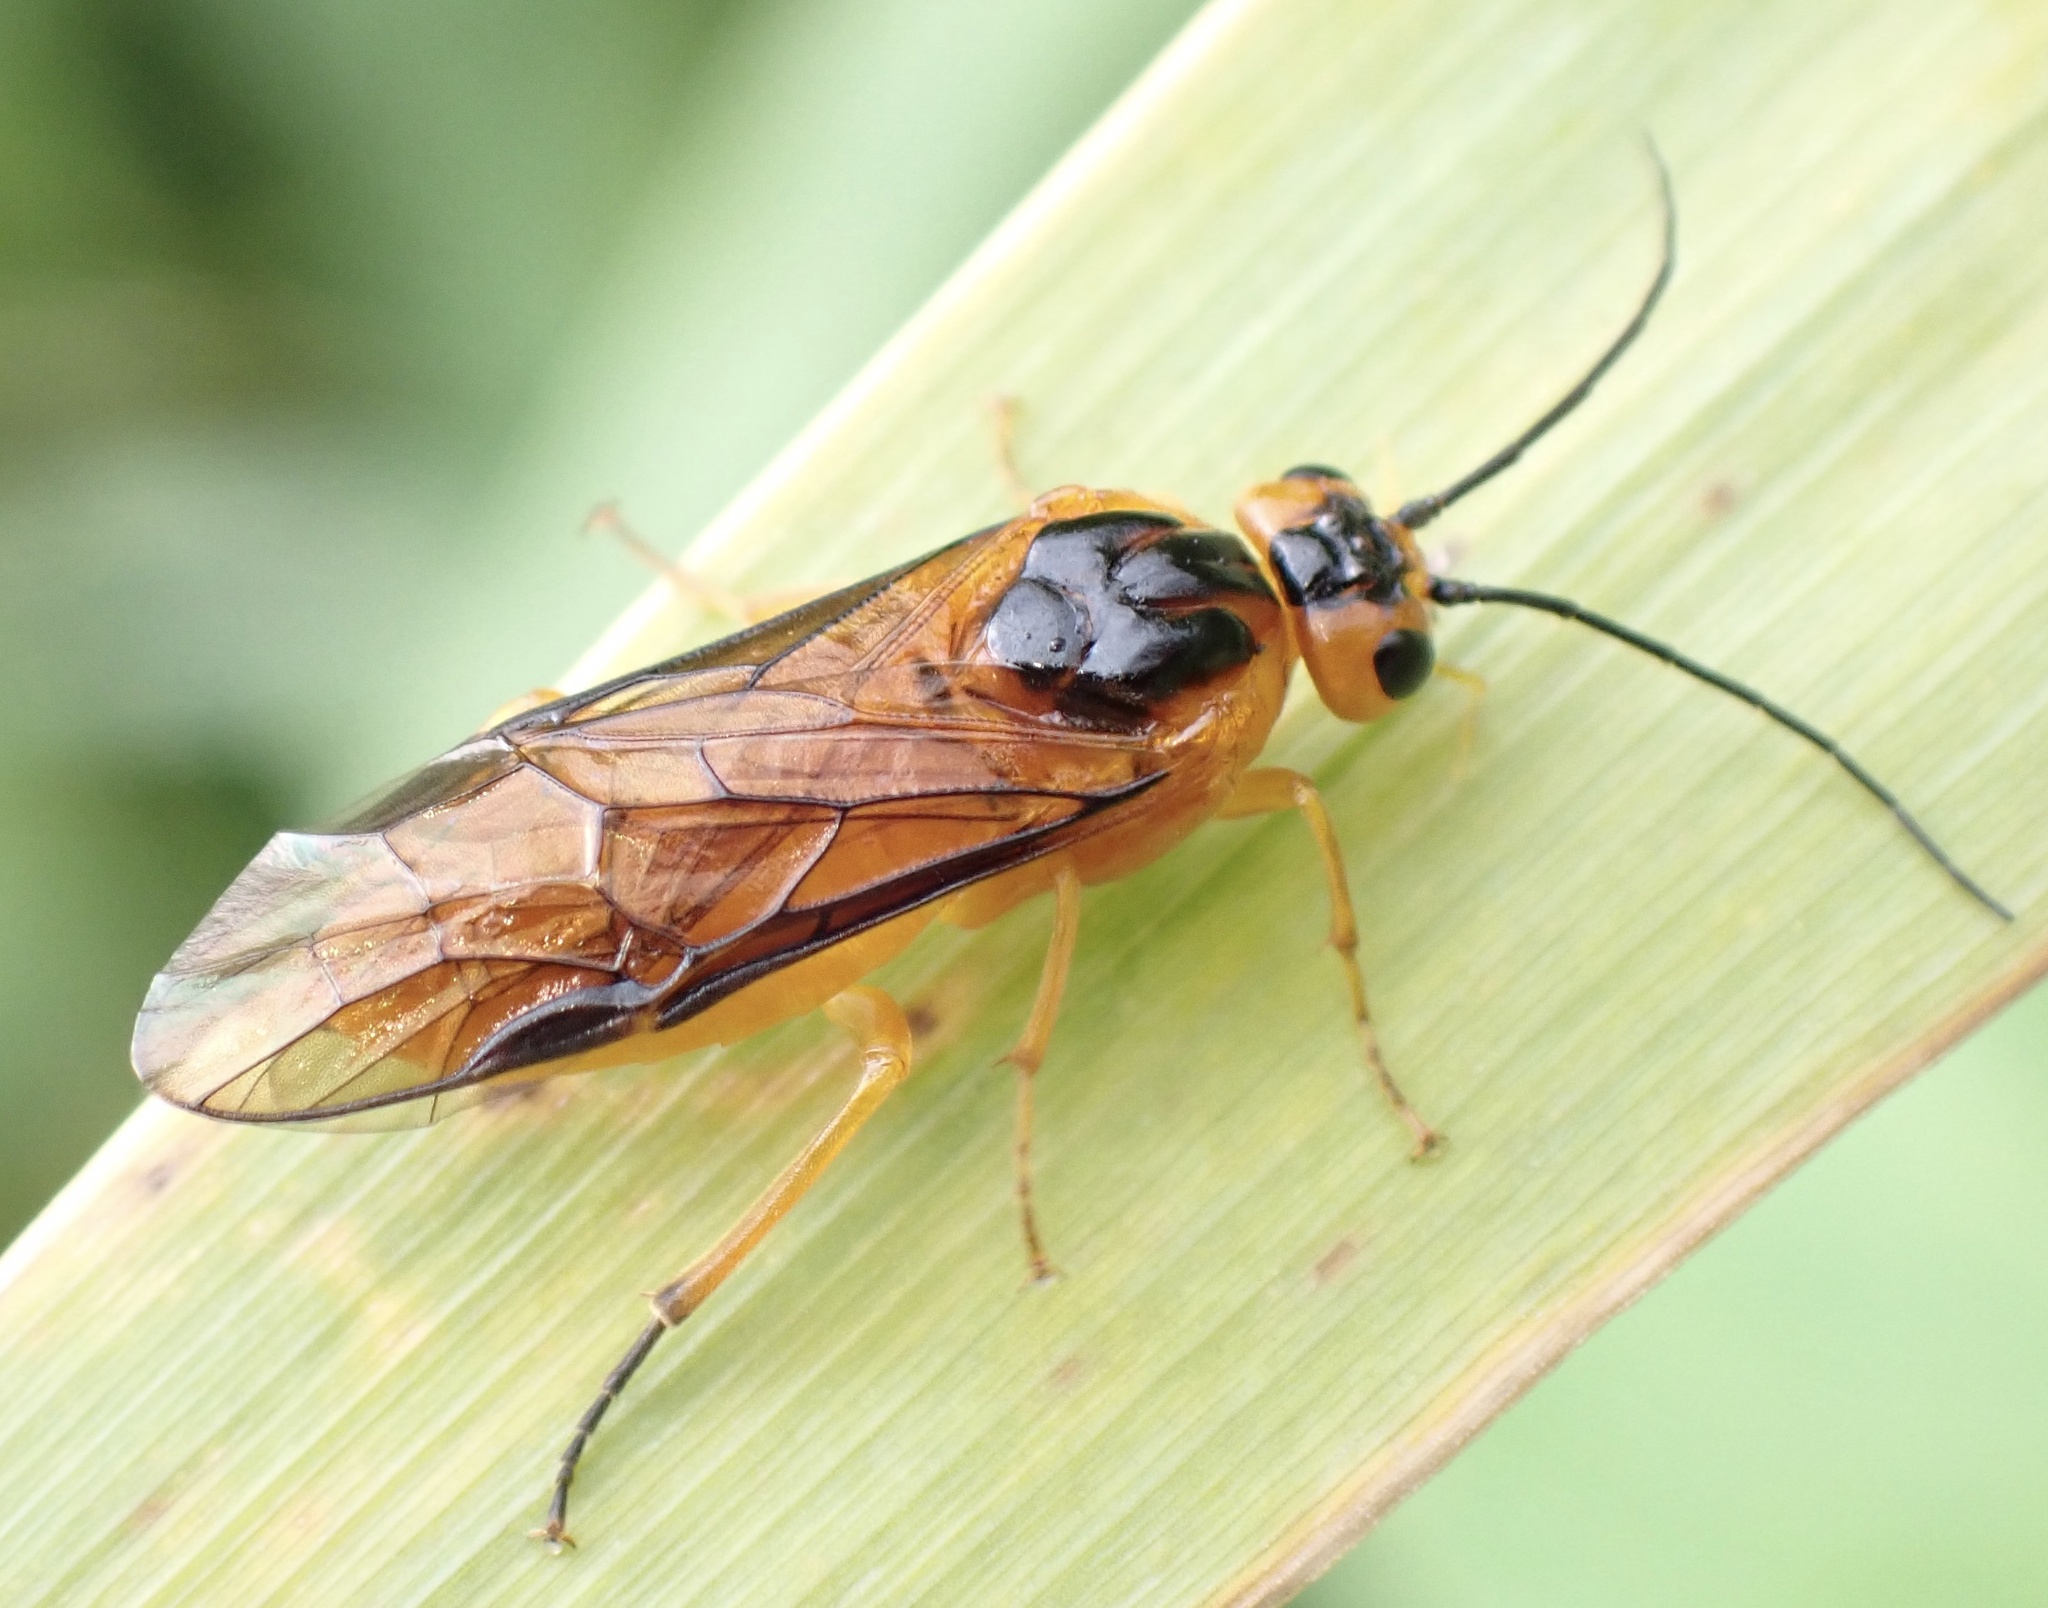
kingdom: Animalia
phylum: Arthropoda
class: Insecta
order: Hymenoptera
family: Tenthredinidae
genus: Nematus
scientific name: Nematus salicis
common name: Willow sawfly
